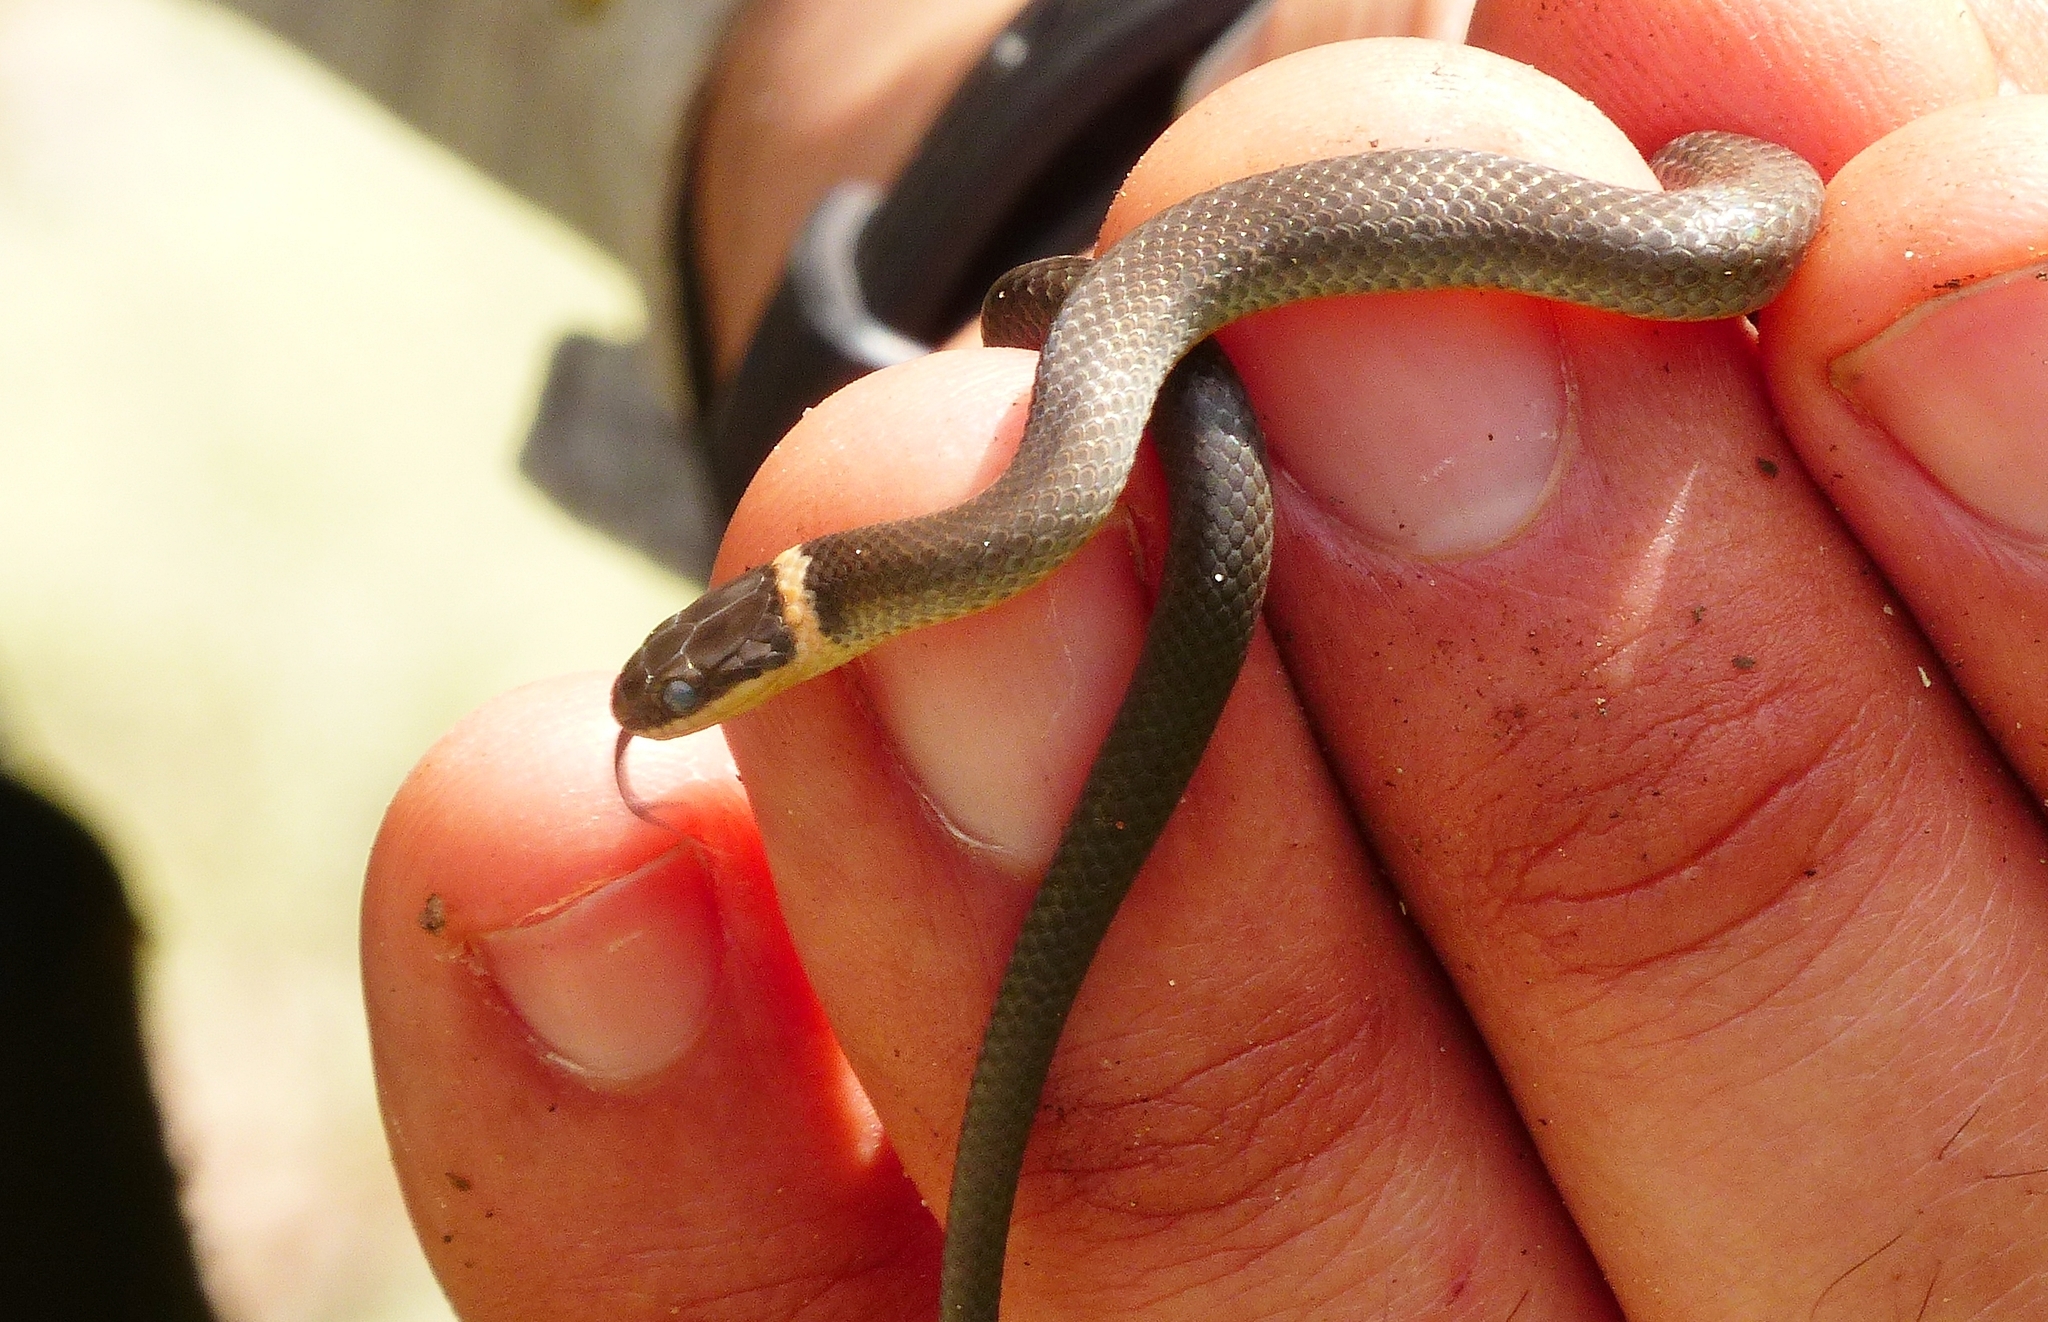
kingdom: Animalia
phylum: Chordata
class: Squamata
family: Colubridae
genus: Diadophis
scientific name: Diadophis punctatus
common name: Ringneck snake
